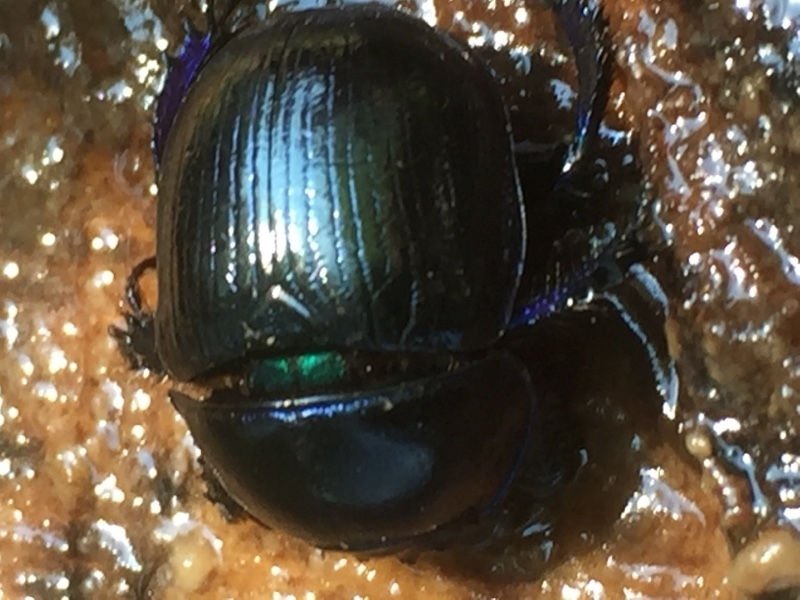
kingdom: Animalia
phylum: Arthropoda
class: Insecta
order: Coleoptera
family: Geotrupidae
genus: Anoplotrupes
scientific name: Anoplotrupes stercorosus
